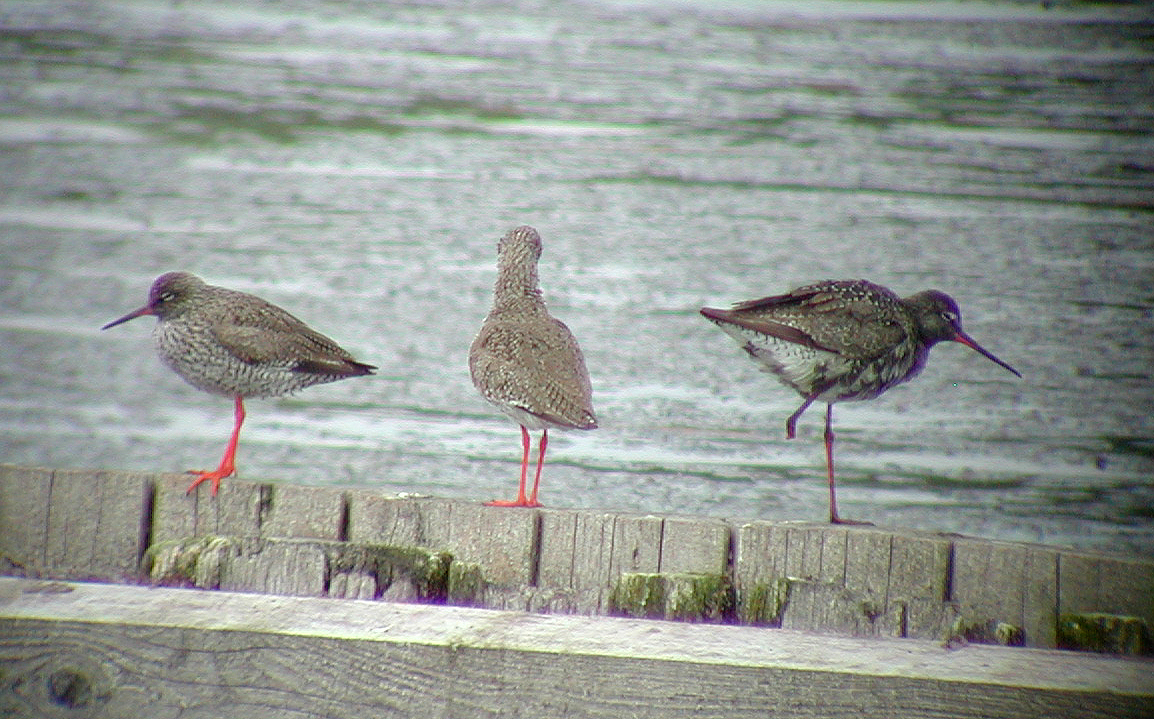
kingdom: Animalia
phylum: Chordata
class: Aves
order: Charadriiformes
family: Scolopacidae
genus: Tringa
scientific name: Tringa totanus
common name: Common redshank
